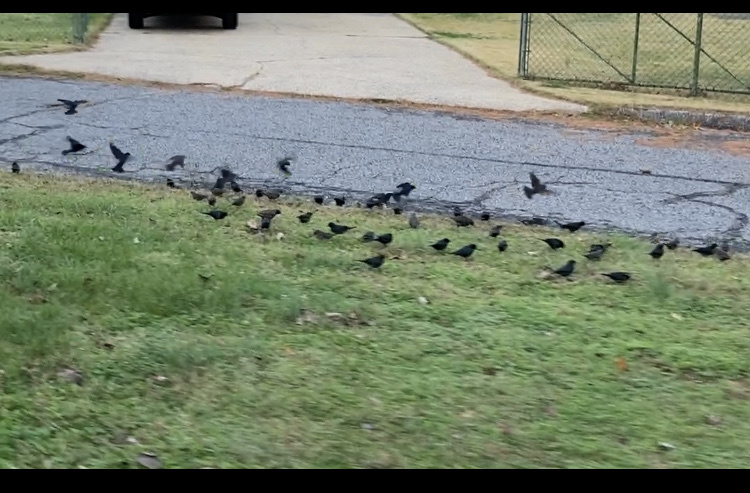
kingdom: Animalia
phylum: Chordata
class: Aves
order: Passeriformes
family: Icteridae
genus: Molothrus
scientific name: Molothrus ater
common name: Brown-headed cowbird
